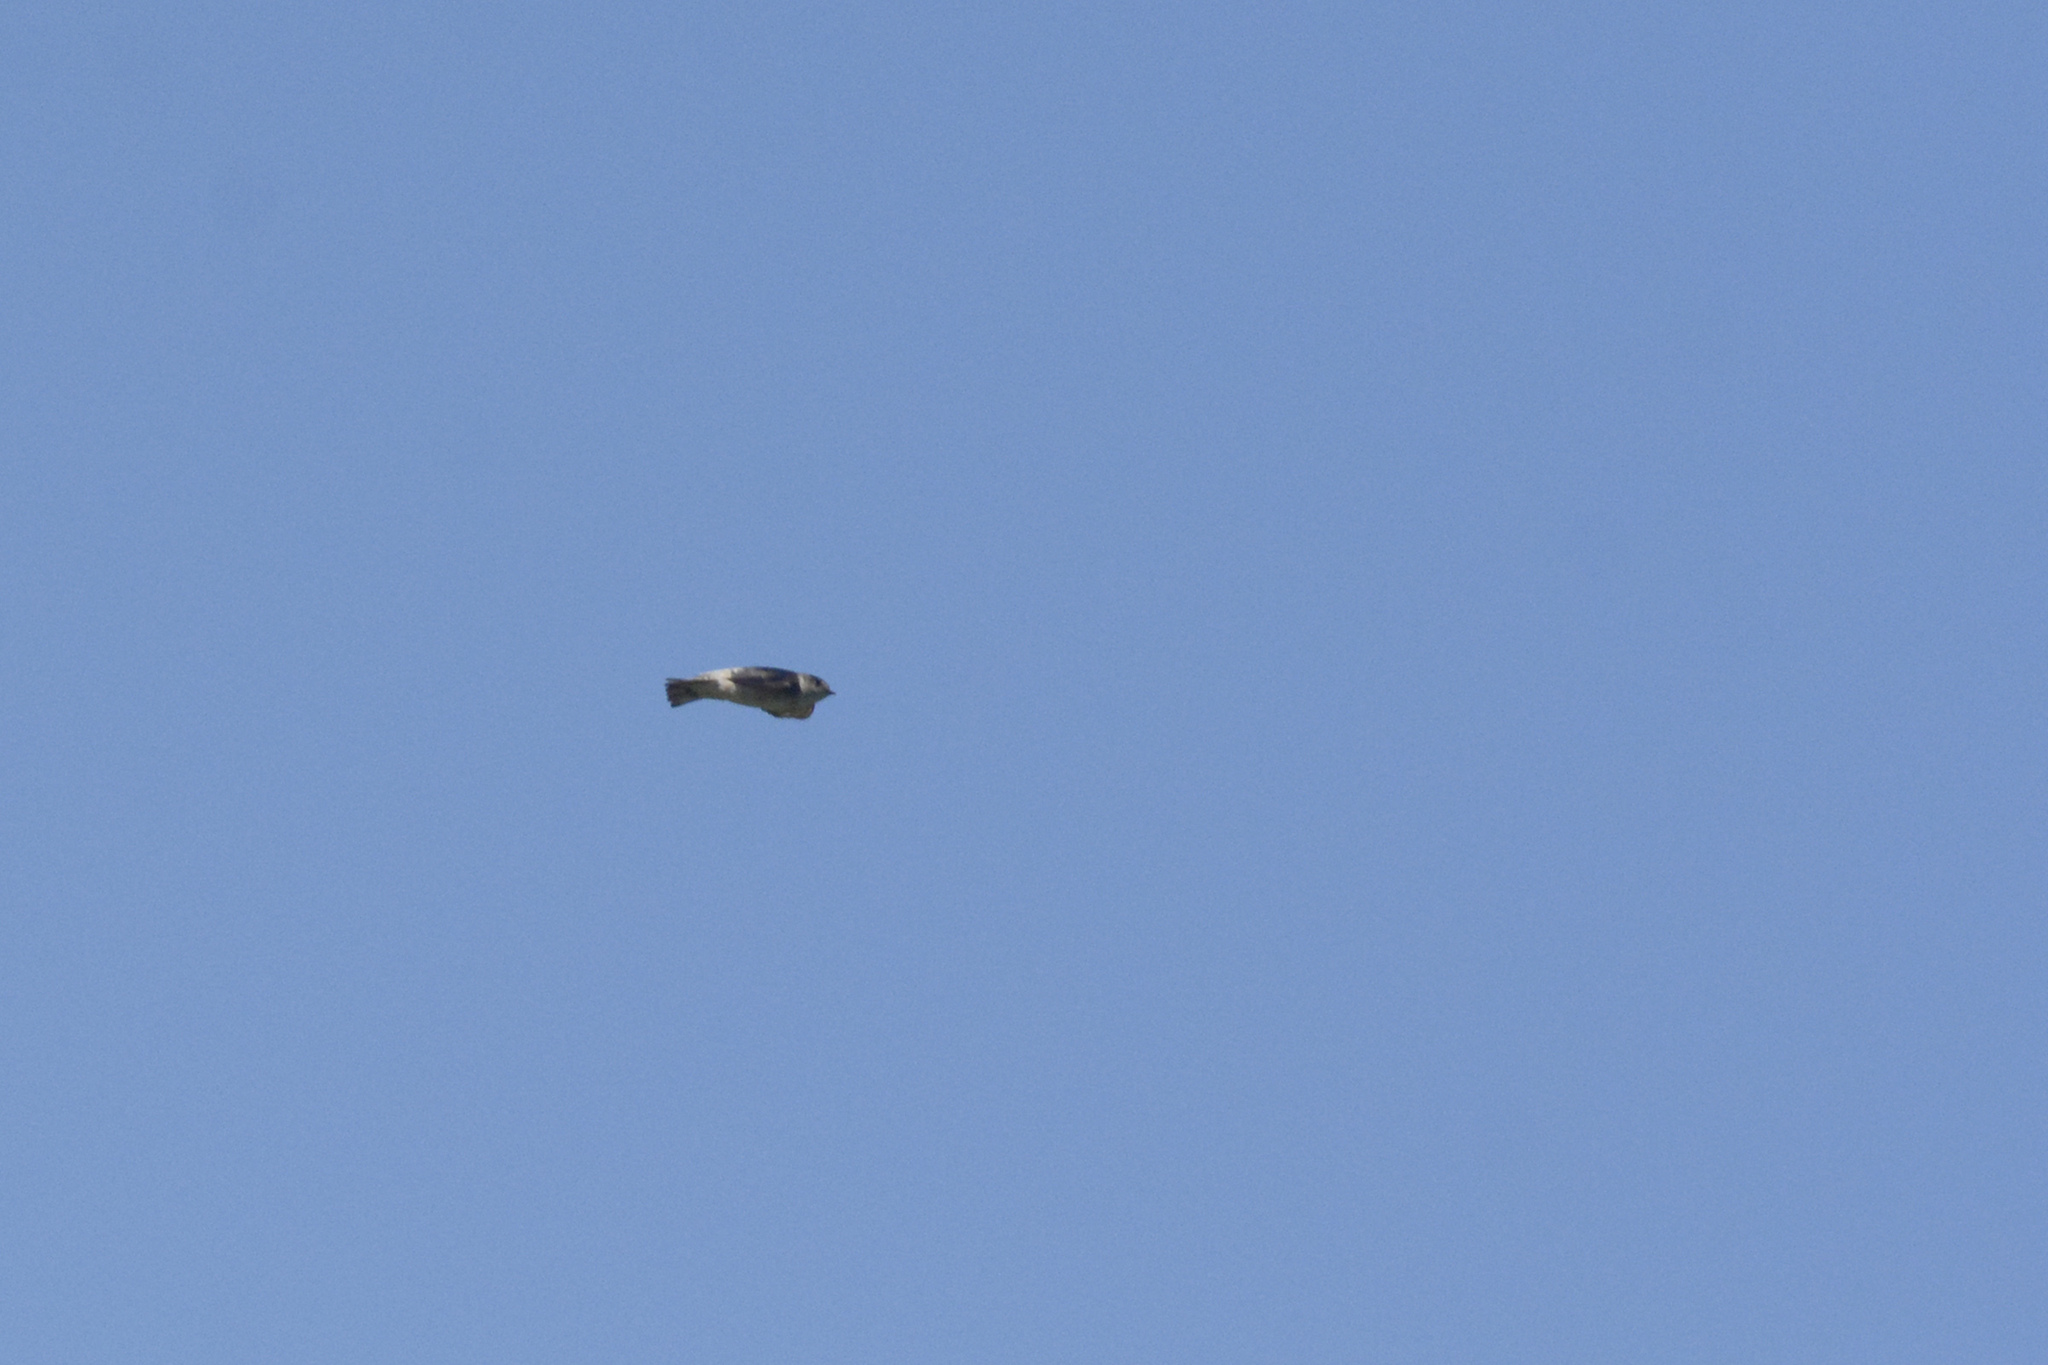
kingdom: Animalia
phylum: Chordata
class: Aves
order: Passeriformes
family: Hirundinidae
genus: Petrochelidon
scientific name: Petrochelidon nigricans
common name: Tree martin
